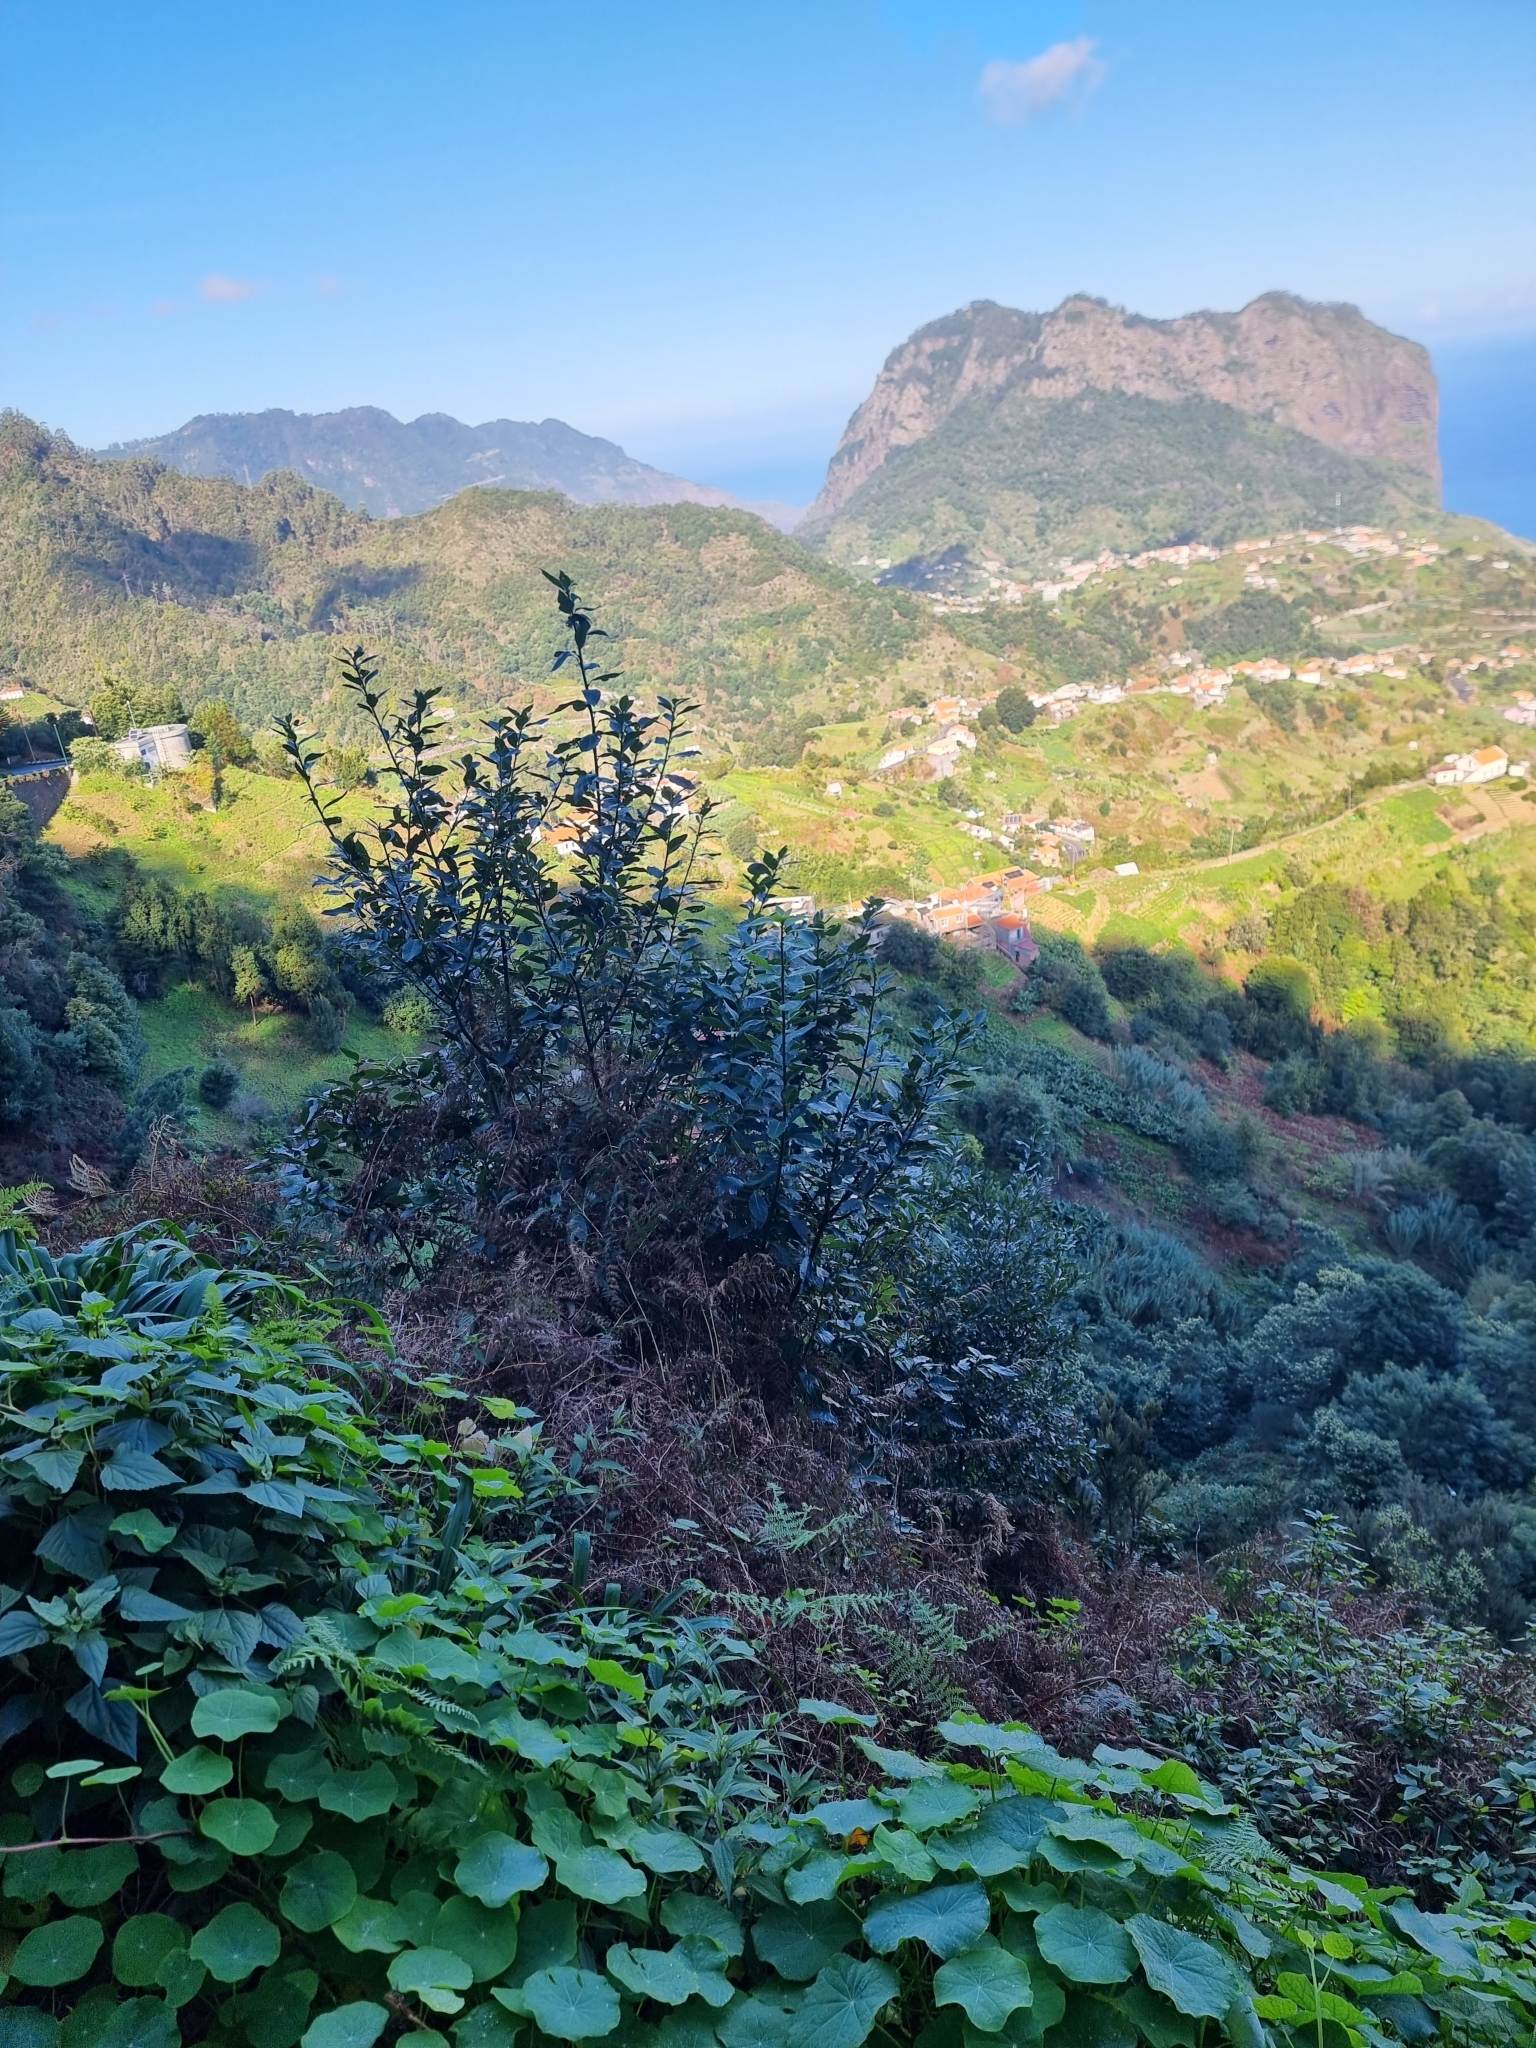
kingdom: Plantae
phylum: Tracheophyta
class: Magnoliopsida
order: Laurales
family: Lauraceae
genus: Laurus
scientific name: Laurus novocanariensis
